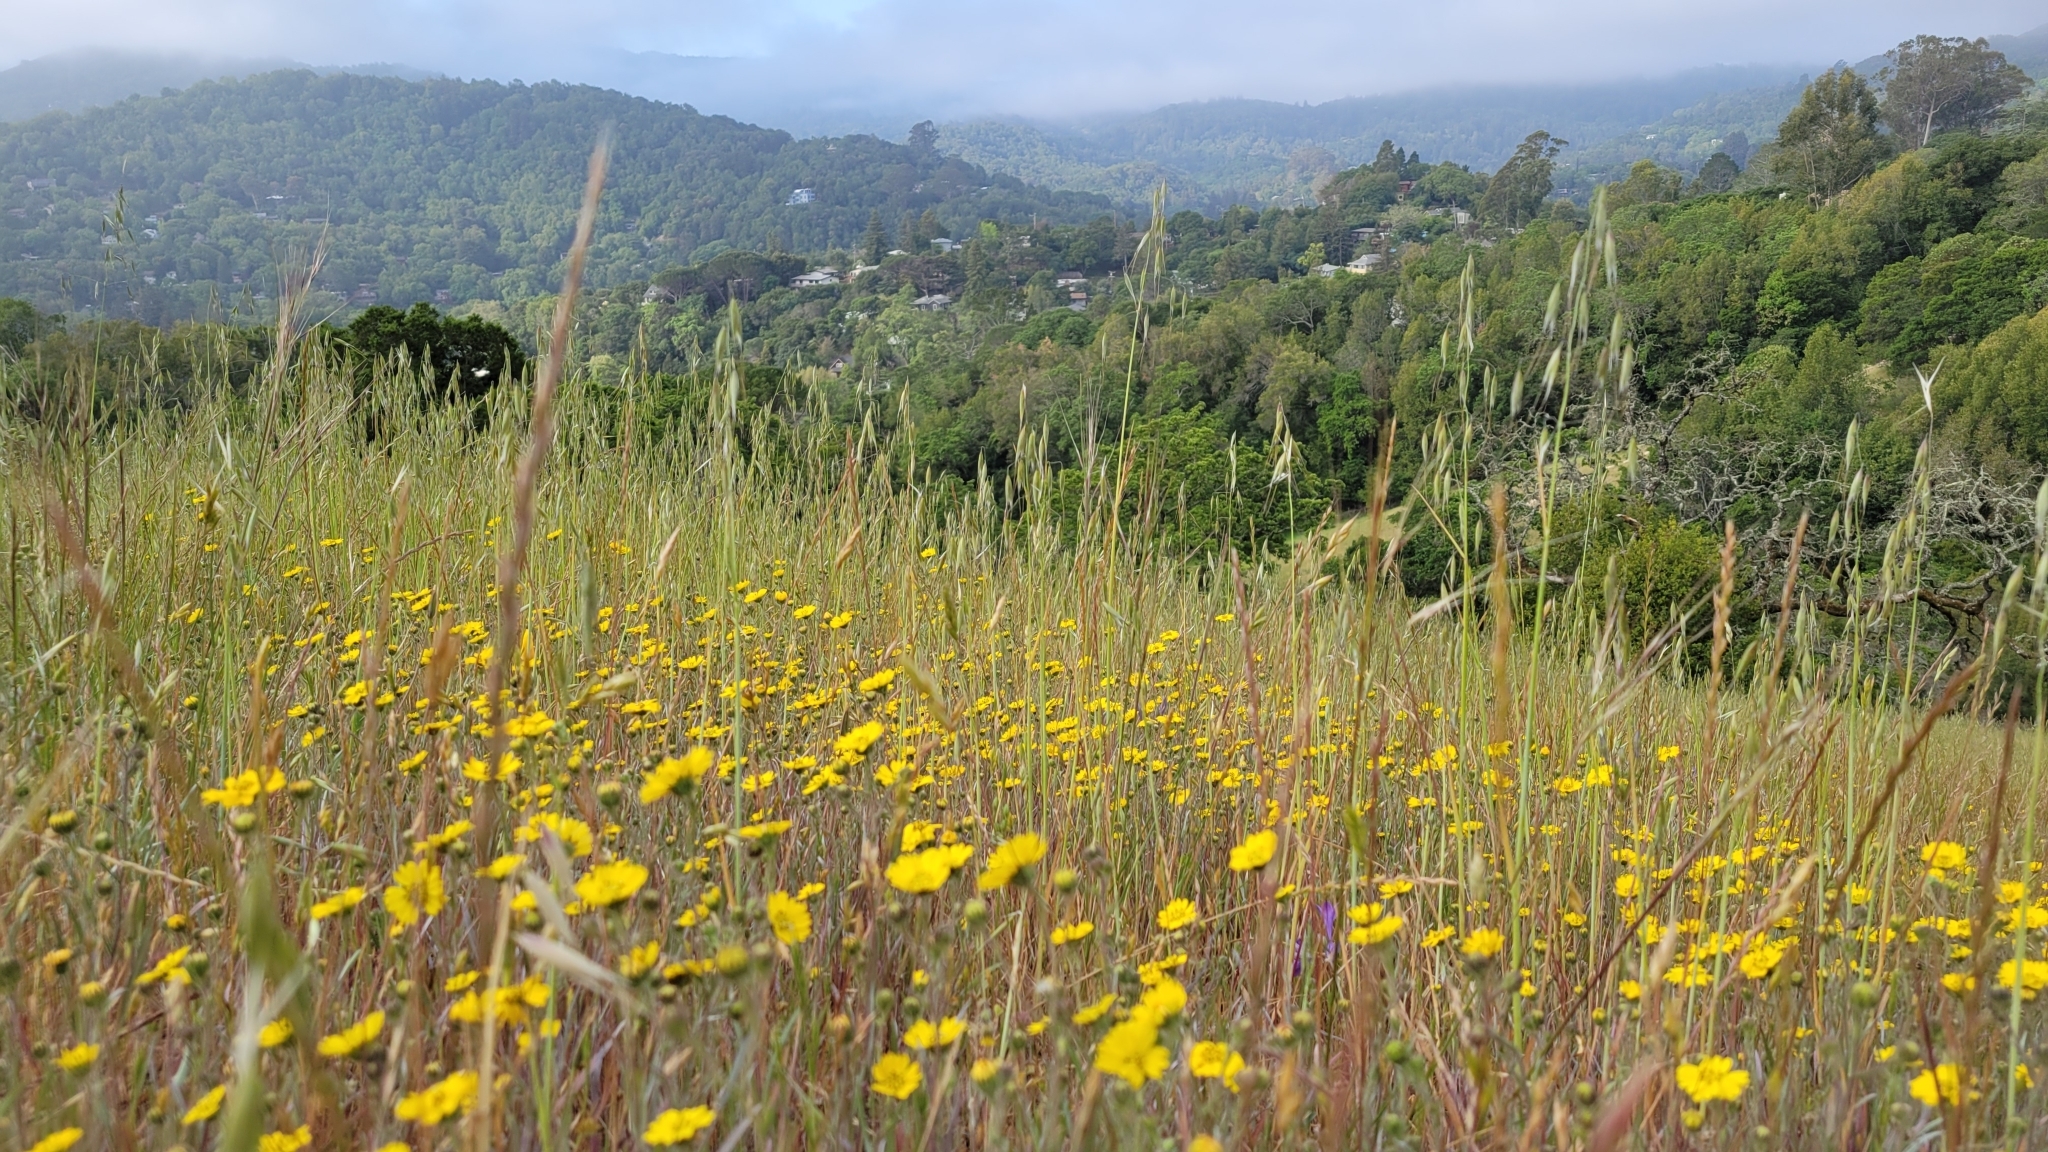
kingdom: Plantae
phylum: Tracheophyta
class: Magnoliopsida
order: Asterales
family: Asteraceae
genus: Hemizonia
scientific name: Hemizonia congesta
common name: Hayfield tarweed
